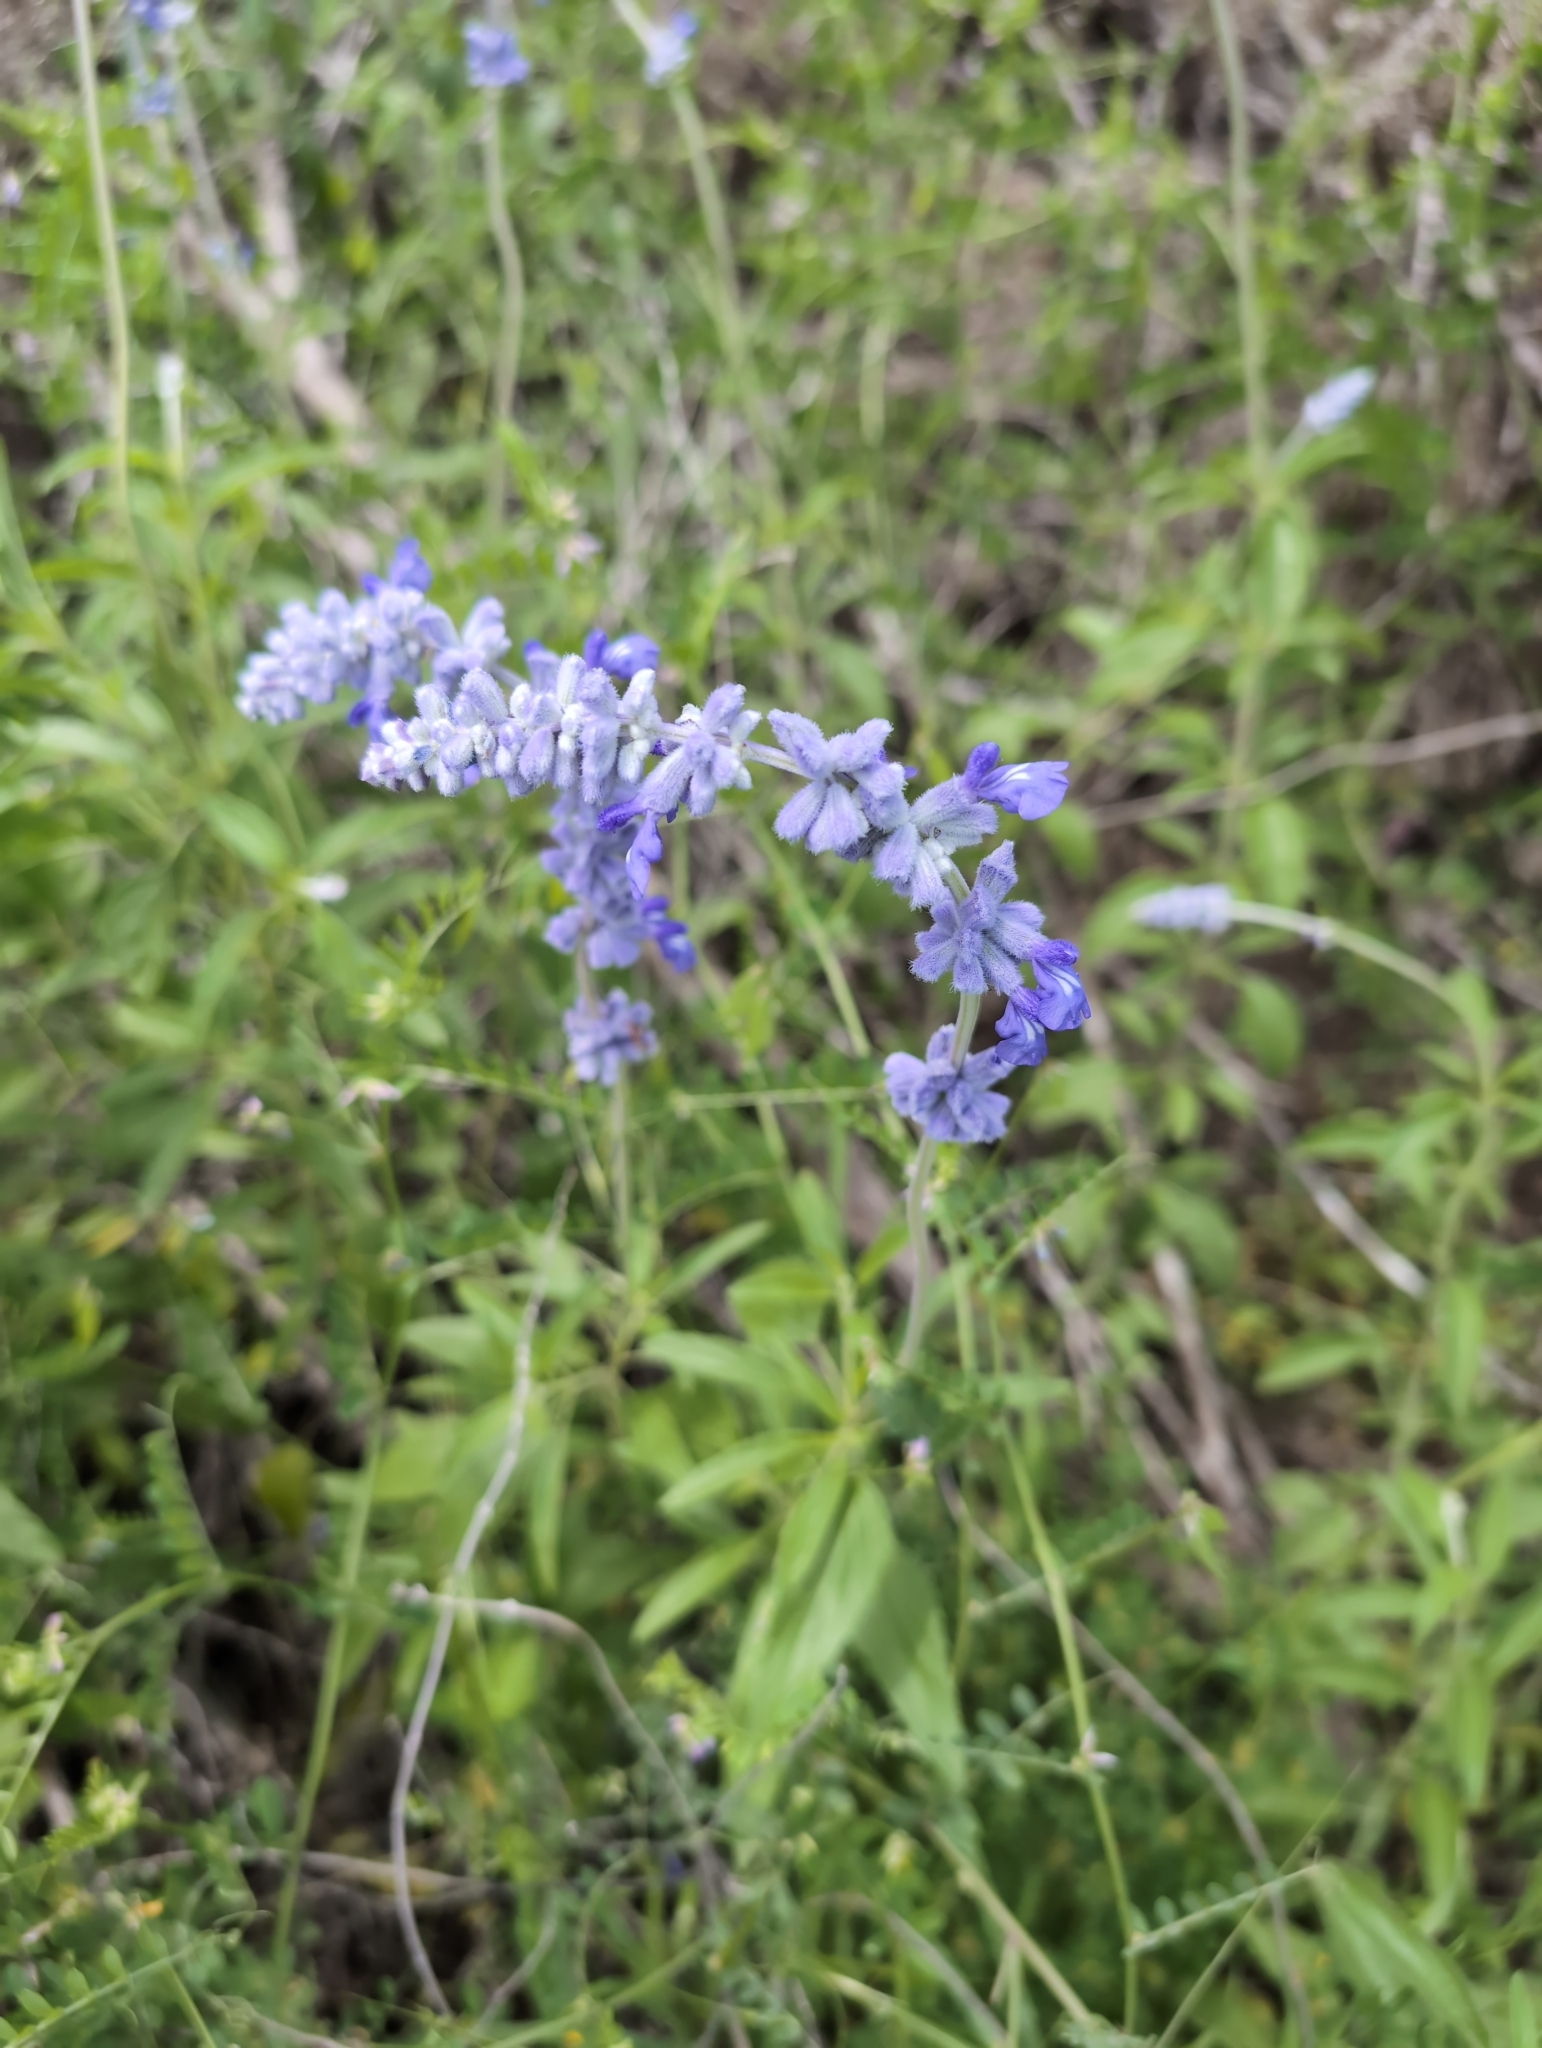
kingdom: Plantae
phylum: Tracheophyta
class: Magnoliopsida
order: Lamiales
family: Lamiaceae
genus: Salvia
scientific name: Salvia farinacea
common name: Mealy sage
